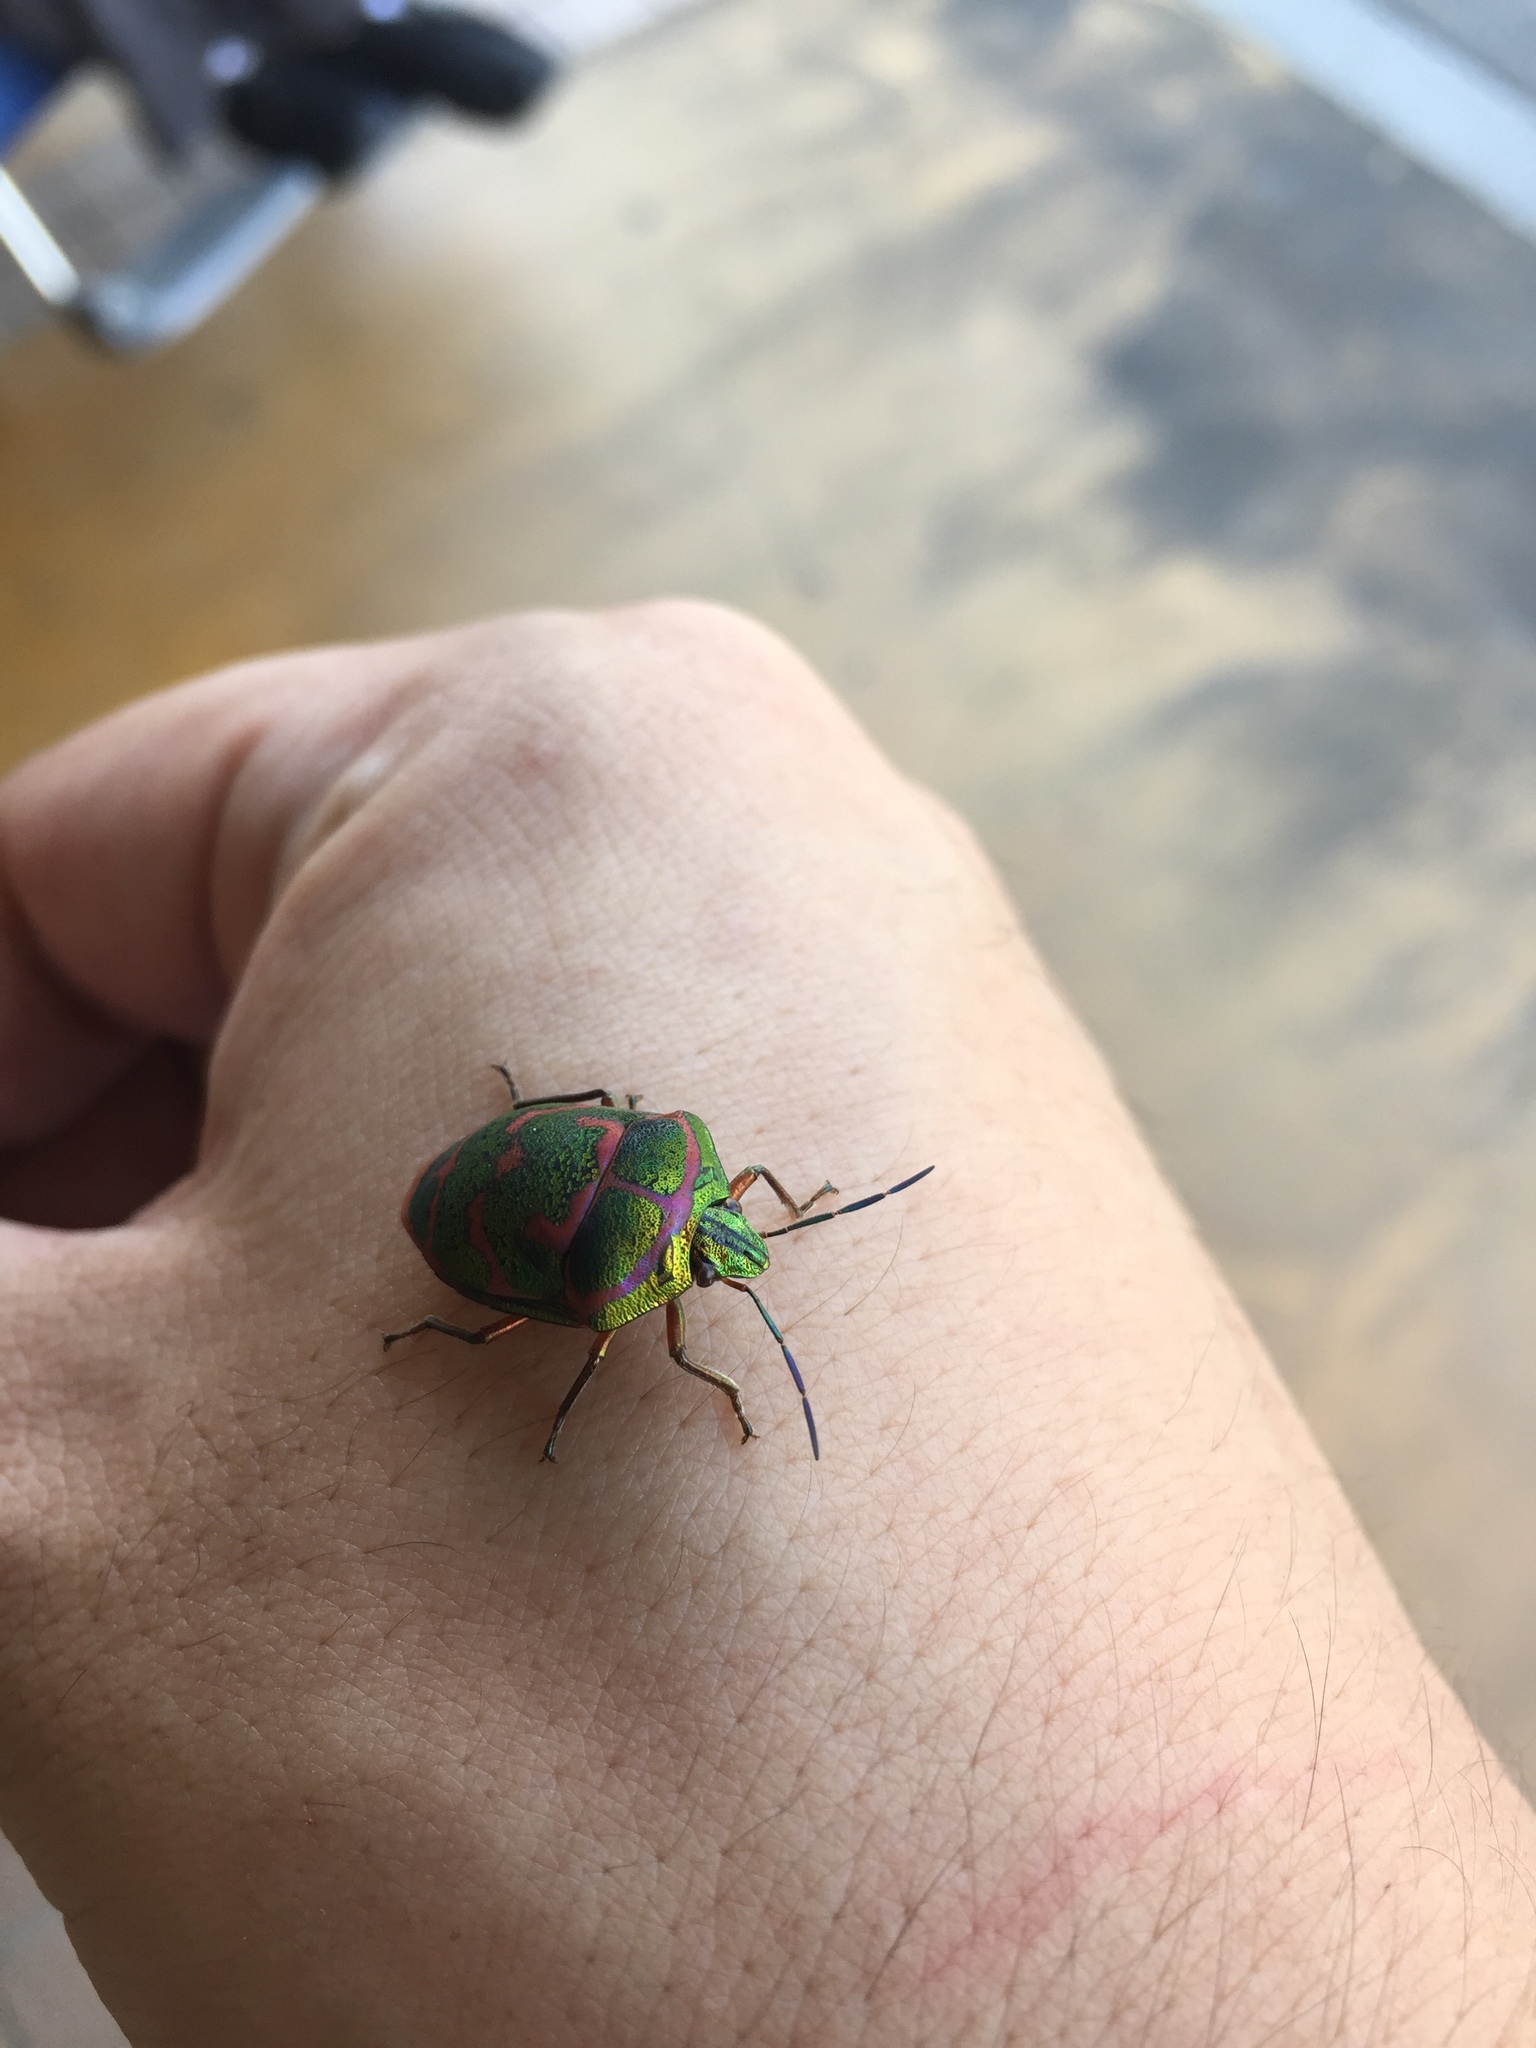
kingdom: Animalia
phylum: Arthropoda
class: Insecta
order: Hemiptera
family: Scutelleridae
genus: Poecilocoris
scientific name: Poecilocoris lewisi
